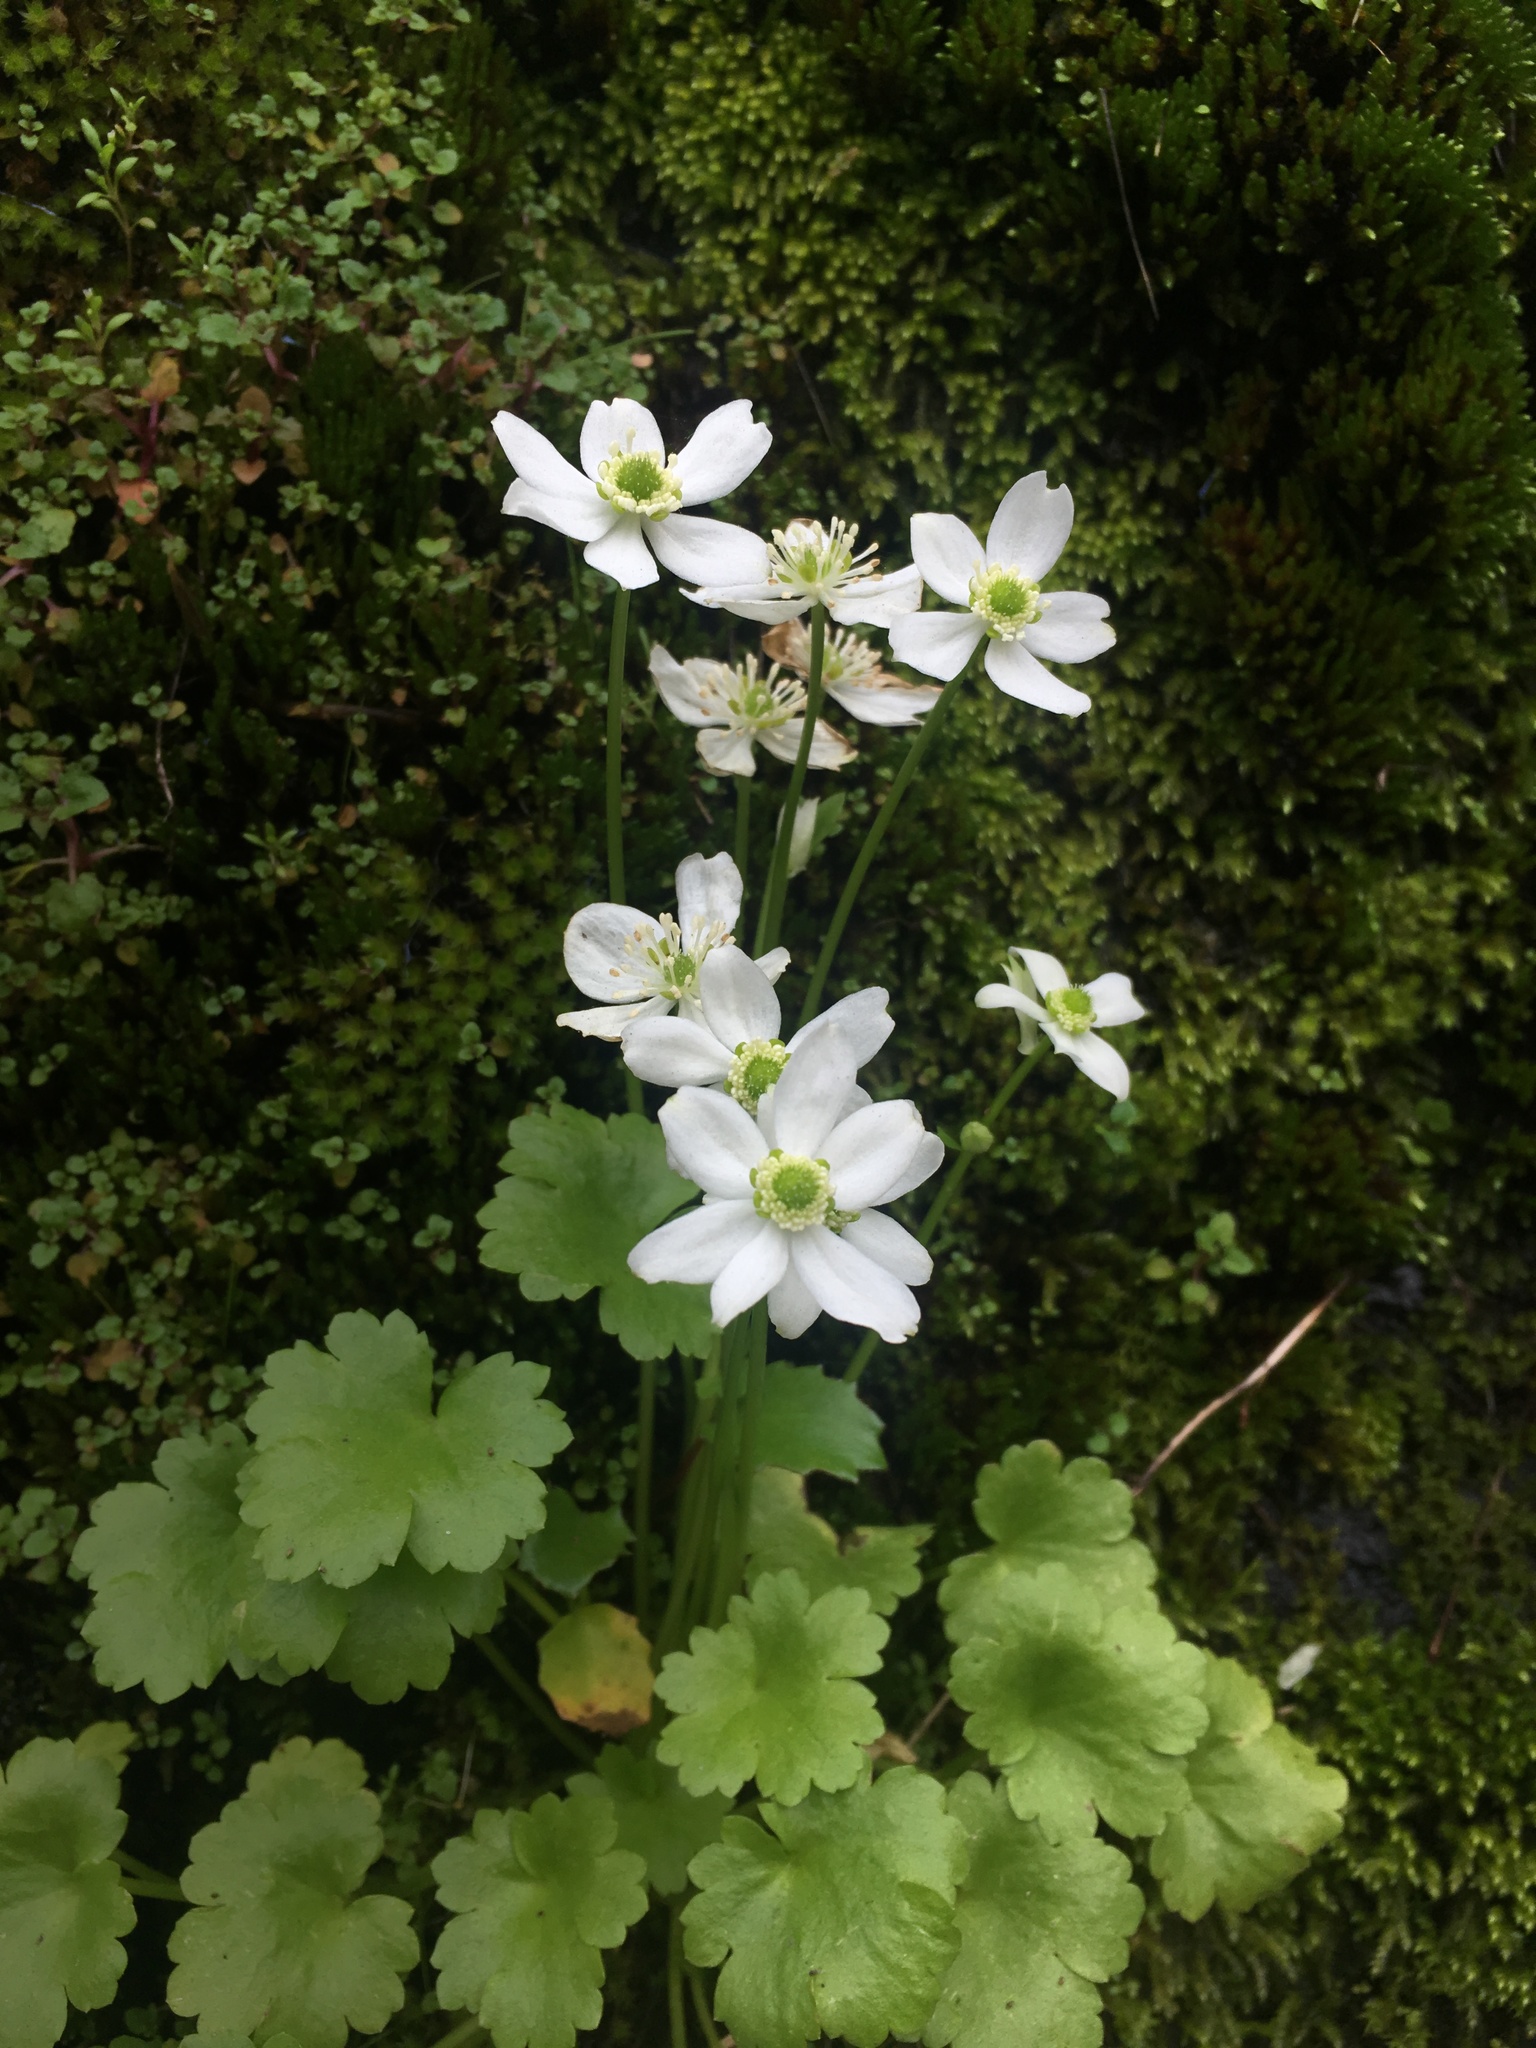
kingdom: Plantae
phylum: Tracheophyta
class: Magnoliopsida
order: Ranunculales
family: Ranunculaceae
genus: Kumlienia
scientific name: Kumlienia hystricula
